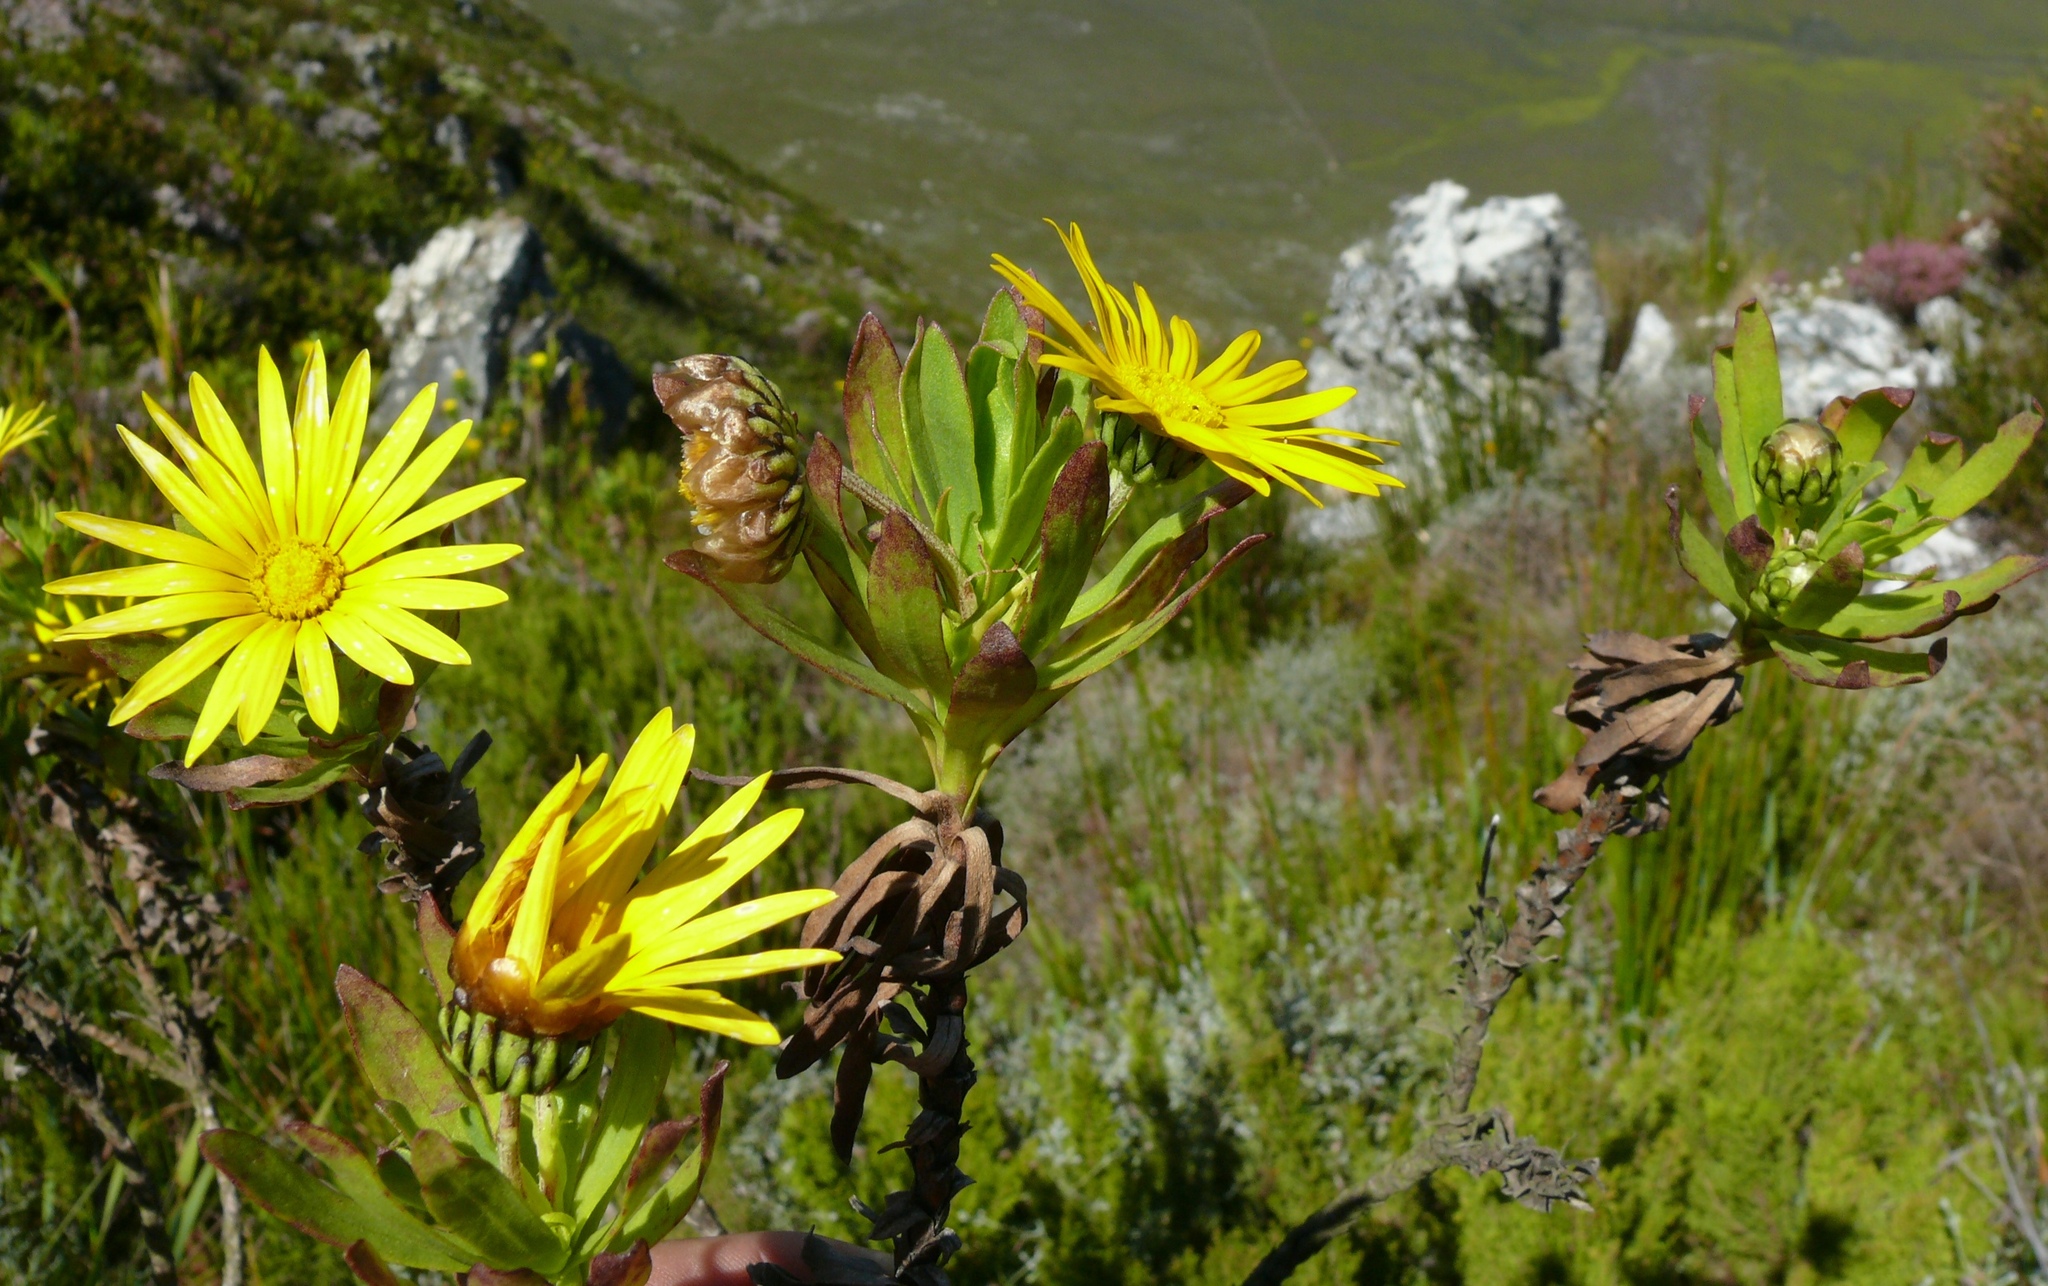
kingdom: Plantae
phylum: Tracheophyta
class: Magnoliopsida
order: Asterales
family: Asteraceae
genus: Ursinia
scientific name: Ursinia eckloniana
